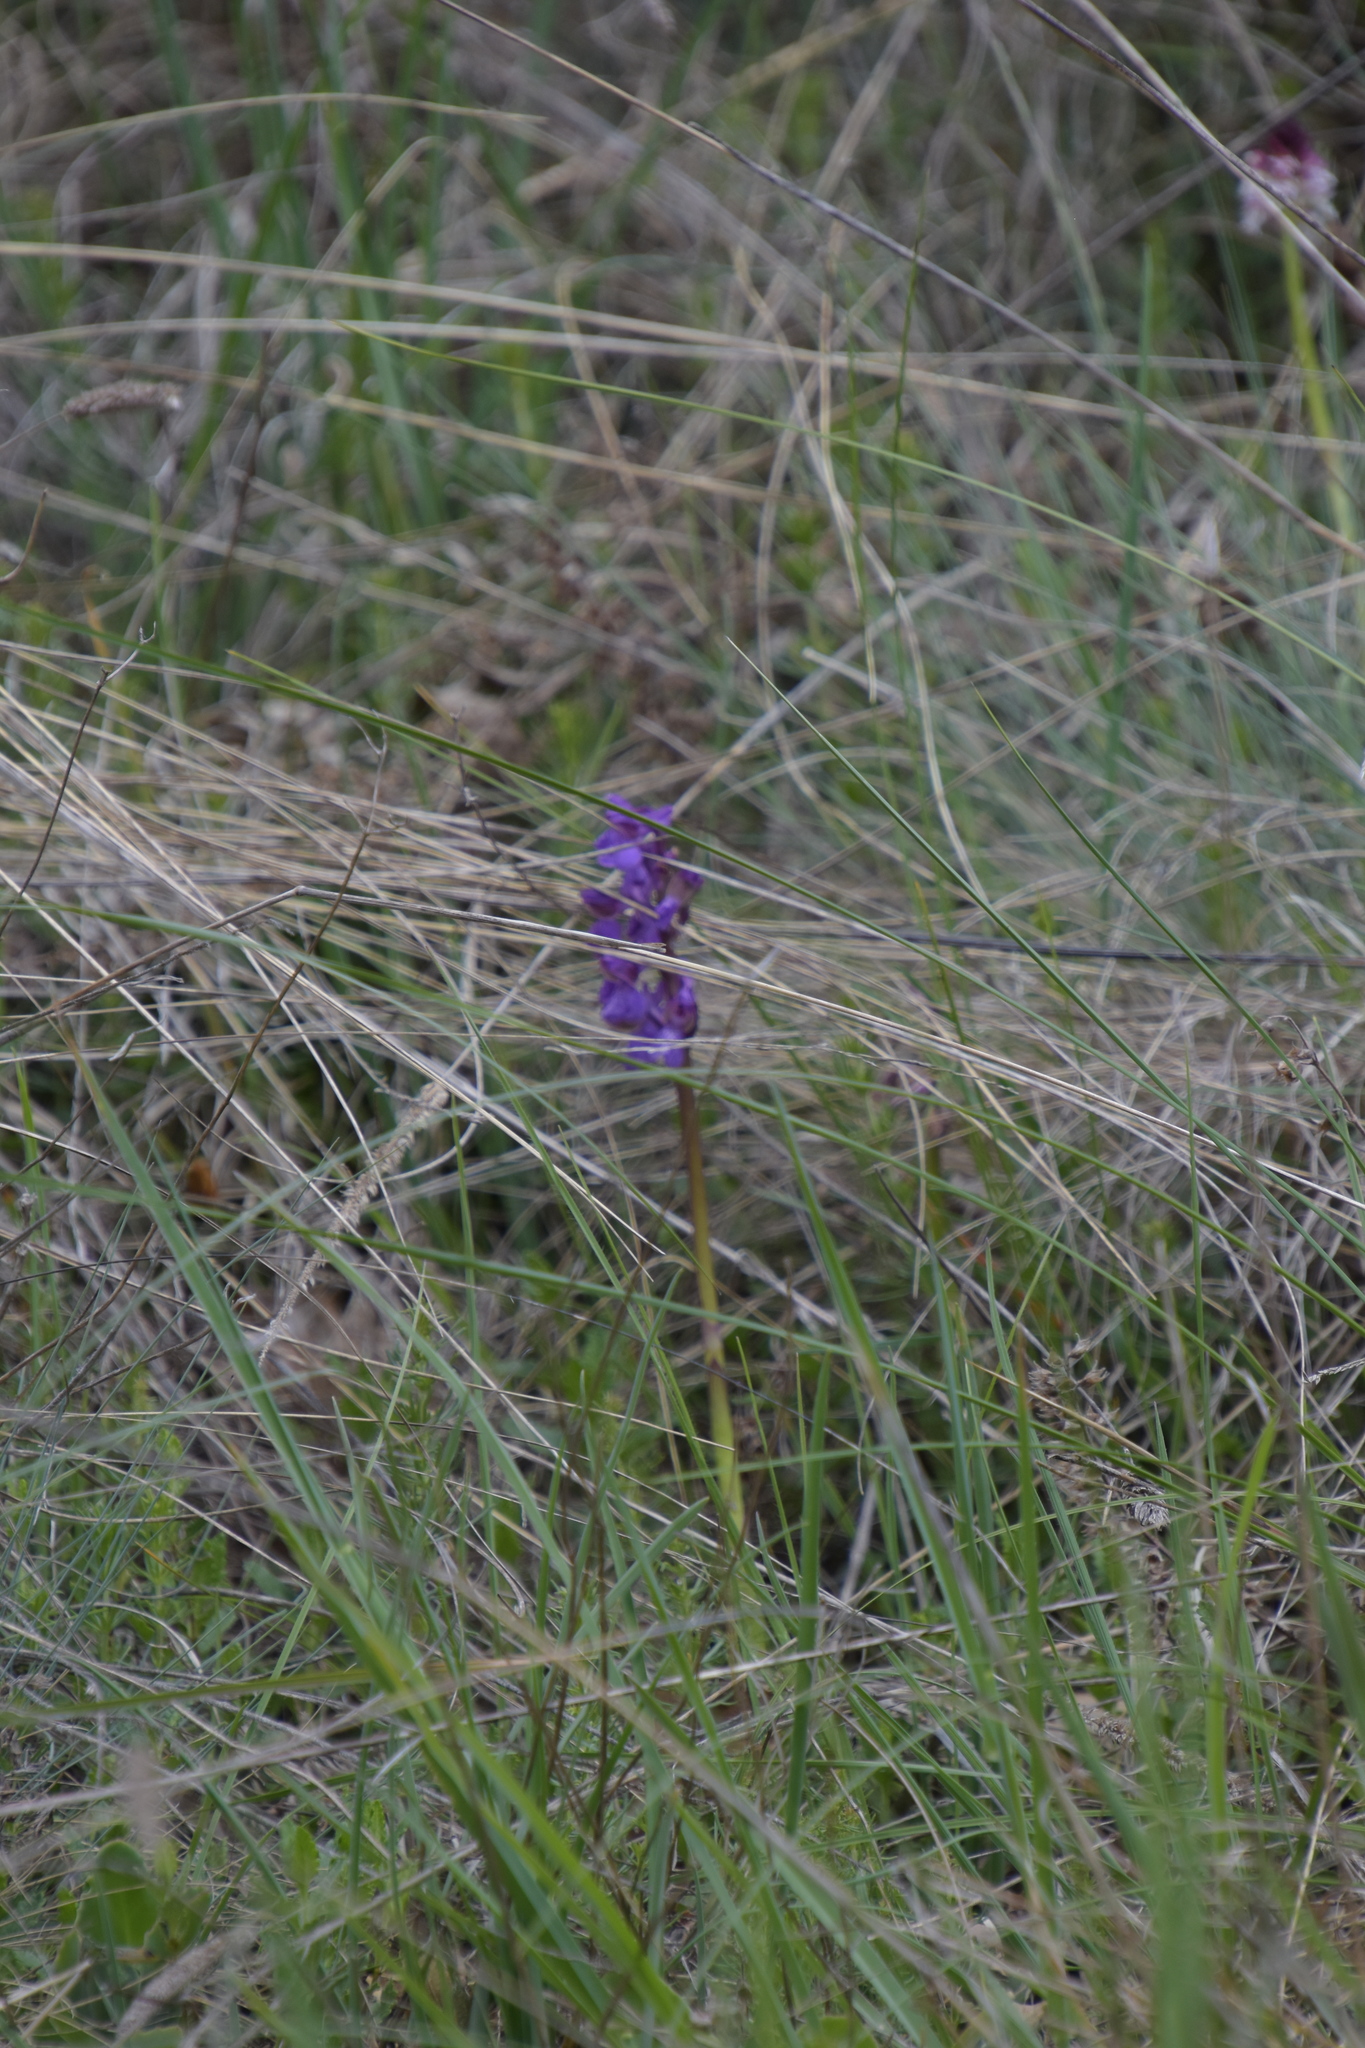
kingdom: Plantae
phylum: Tracheophyta
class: Liliopsida
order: Asparagales
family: Orchidaceae
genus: Anacamptis
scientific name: Anacamptis morio
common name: Green-winged orchid
